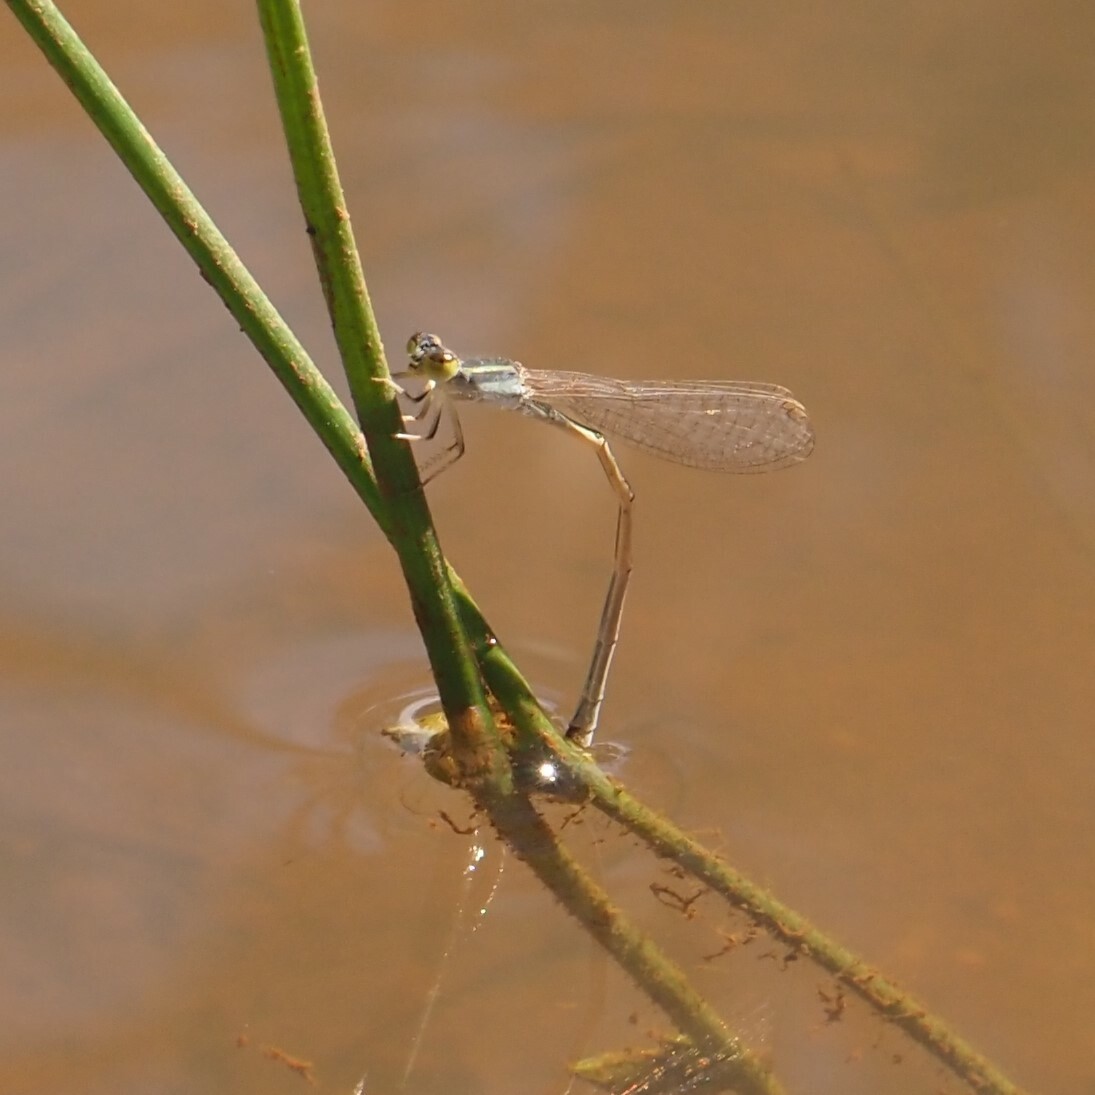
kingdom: Animalia
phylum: Arthropoda
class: Insecta
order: Odonata
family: Coenagrionidae
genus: Ischnura
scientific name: Ischnura heterosticta
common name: Common bluetail
